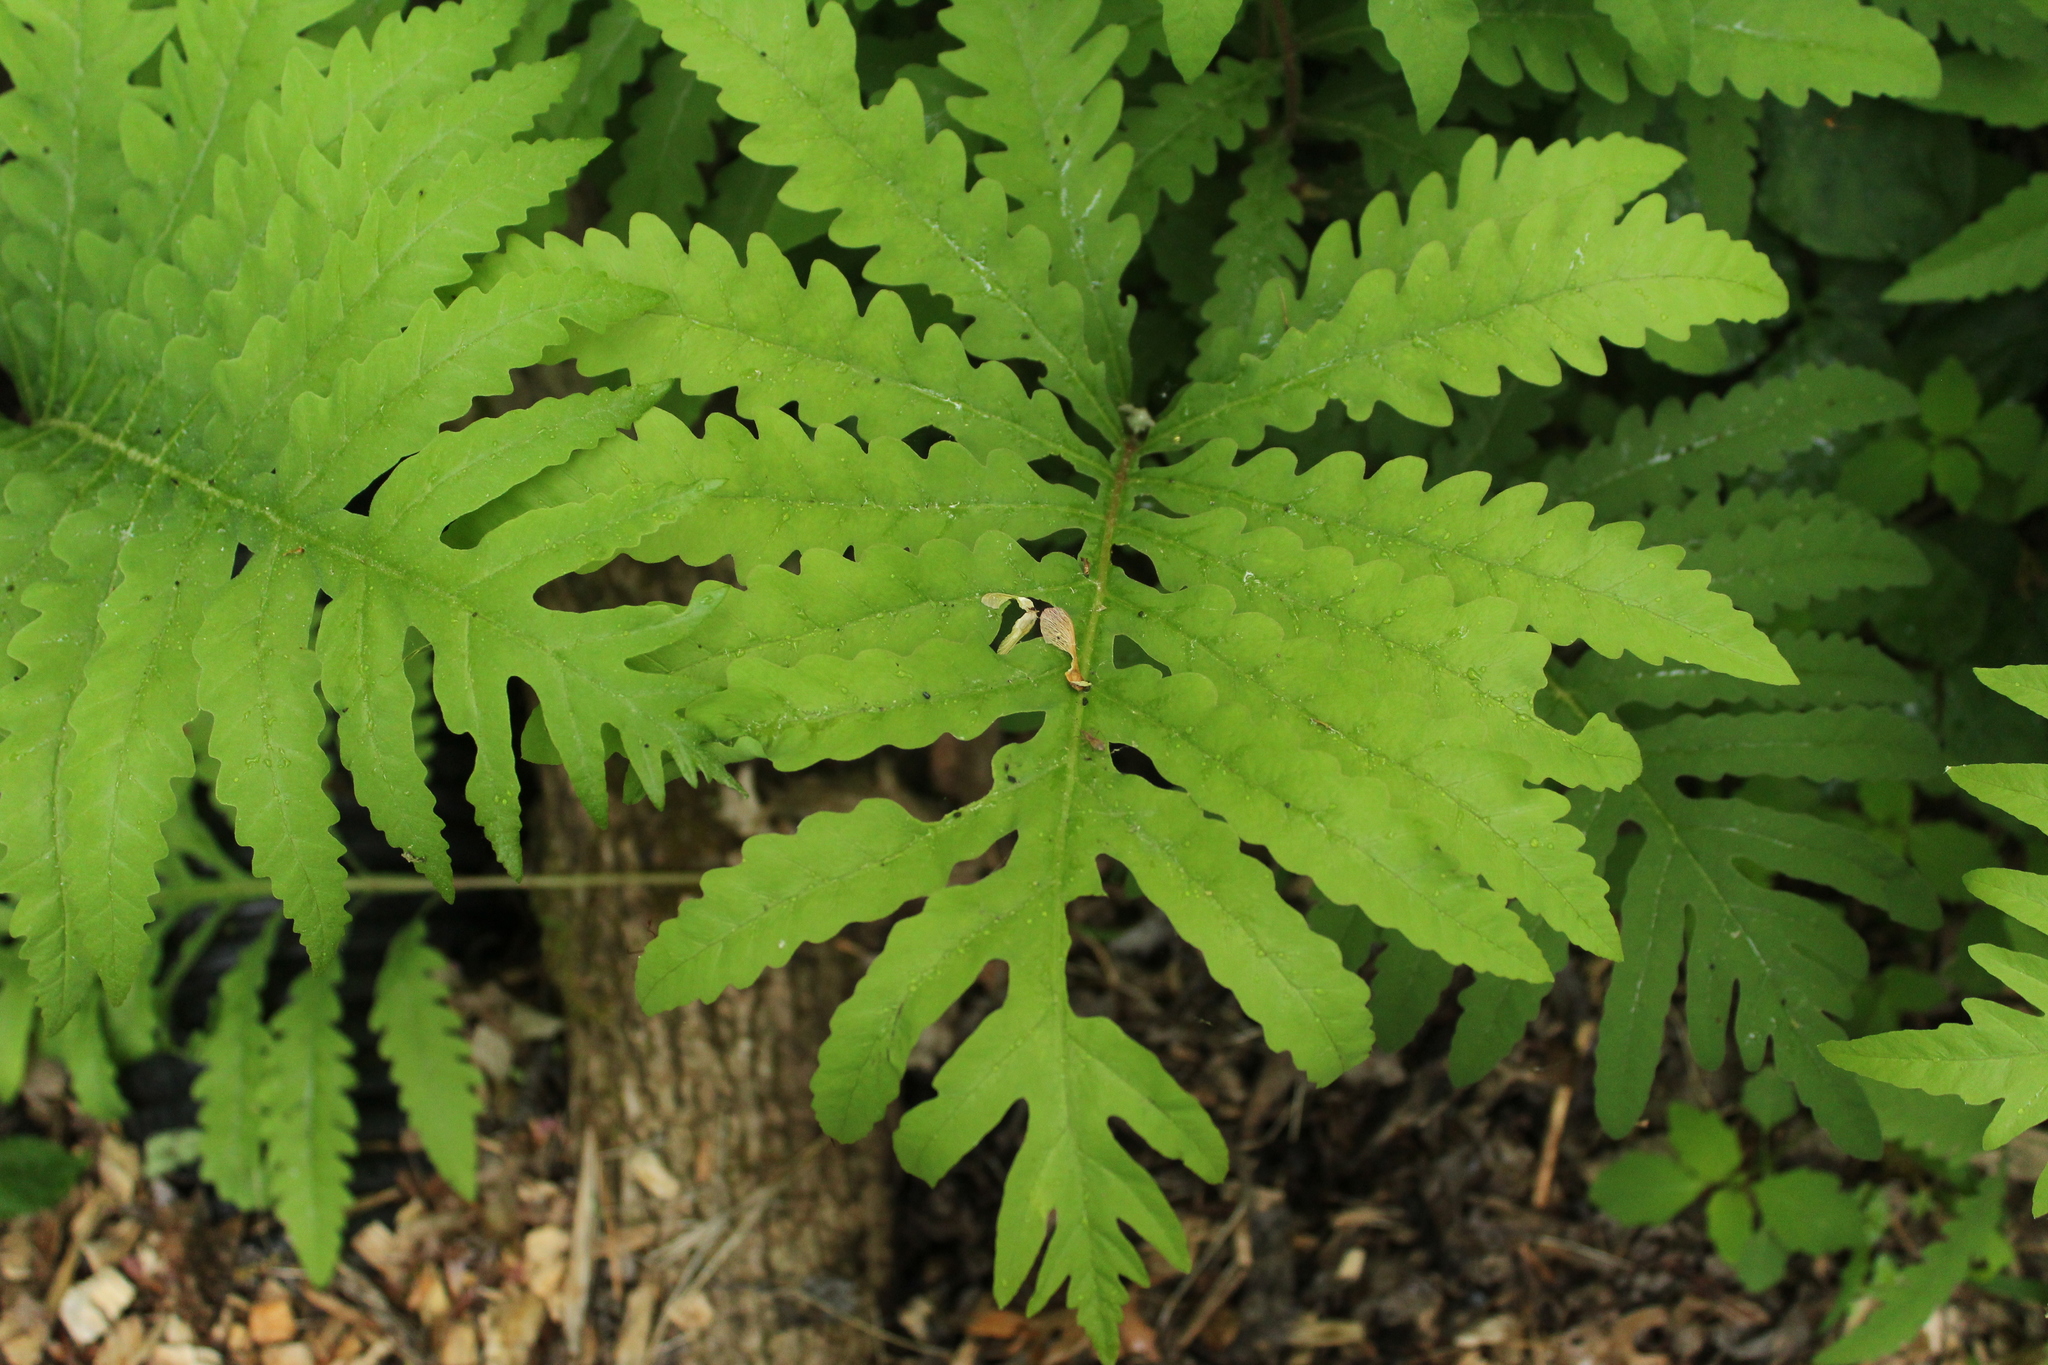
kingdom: Plantae
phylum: Tracheophyta
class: Polypodiopsida
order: Polypodiales
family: Onocleaceae
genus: Onoclea
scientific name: Onoclea sensibilis
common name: Sensitive fern
